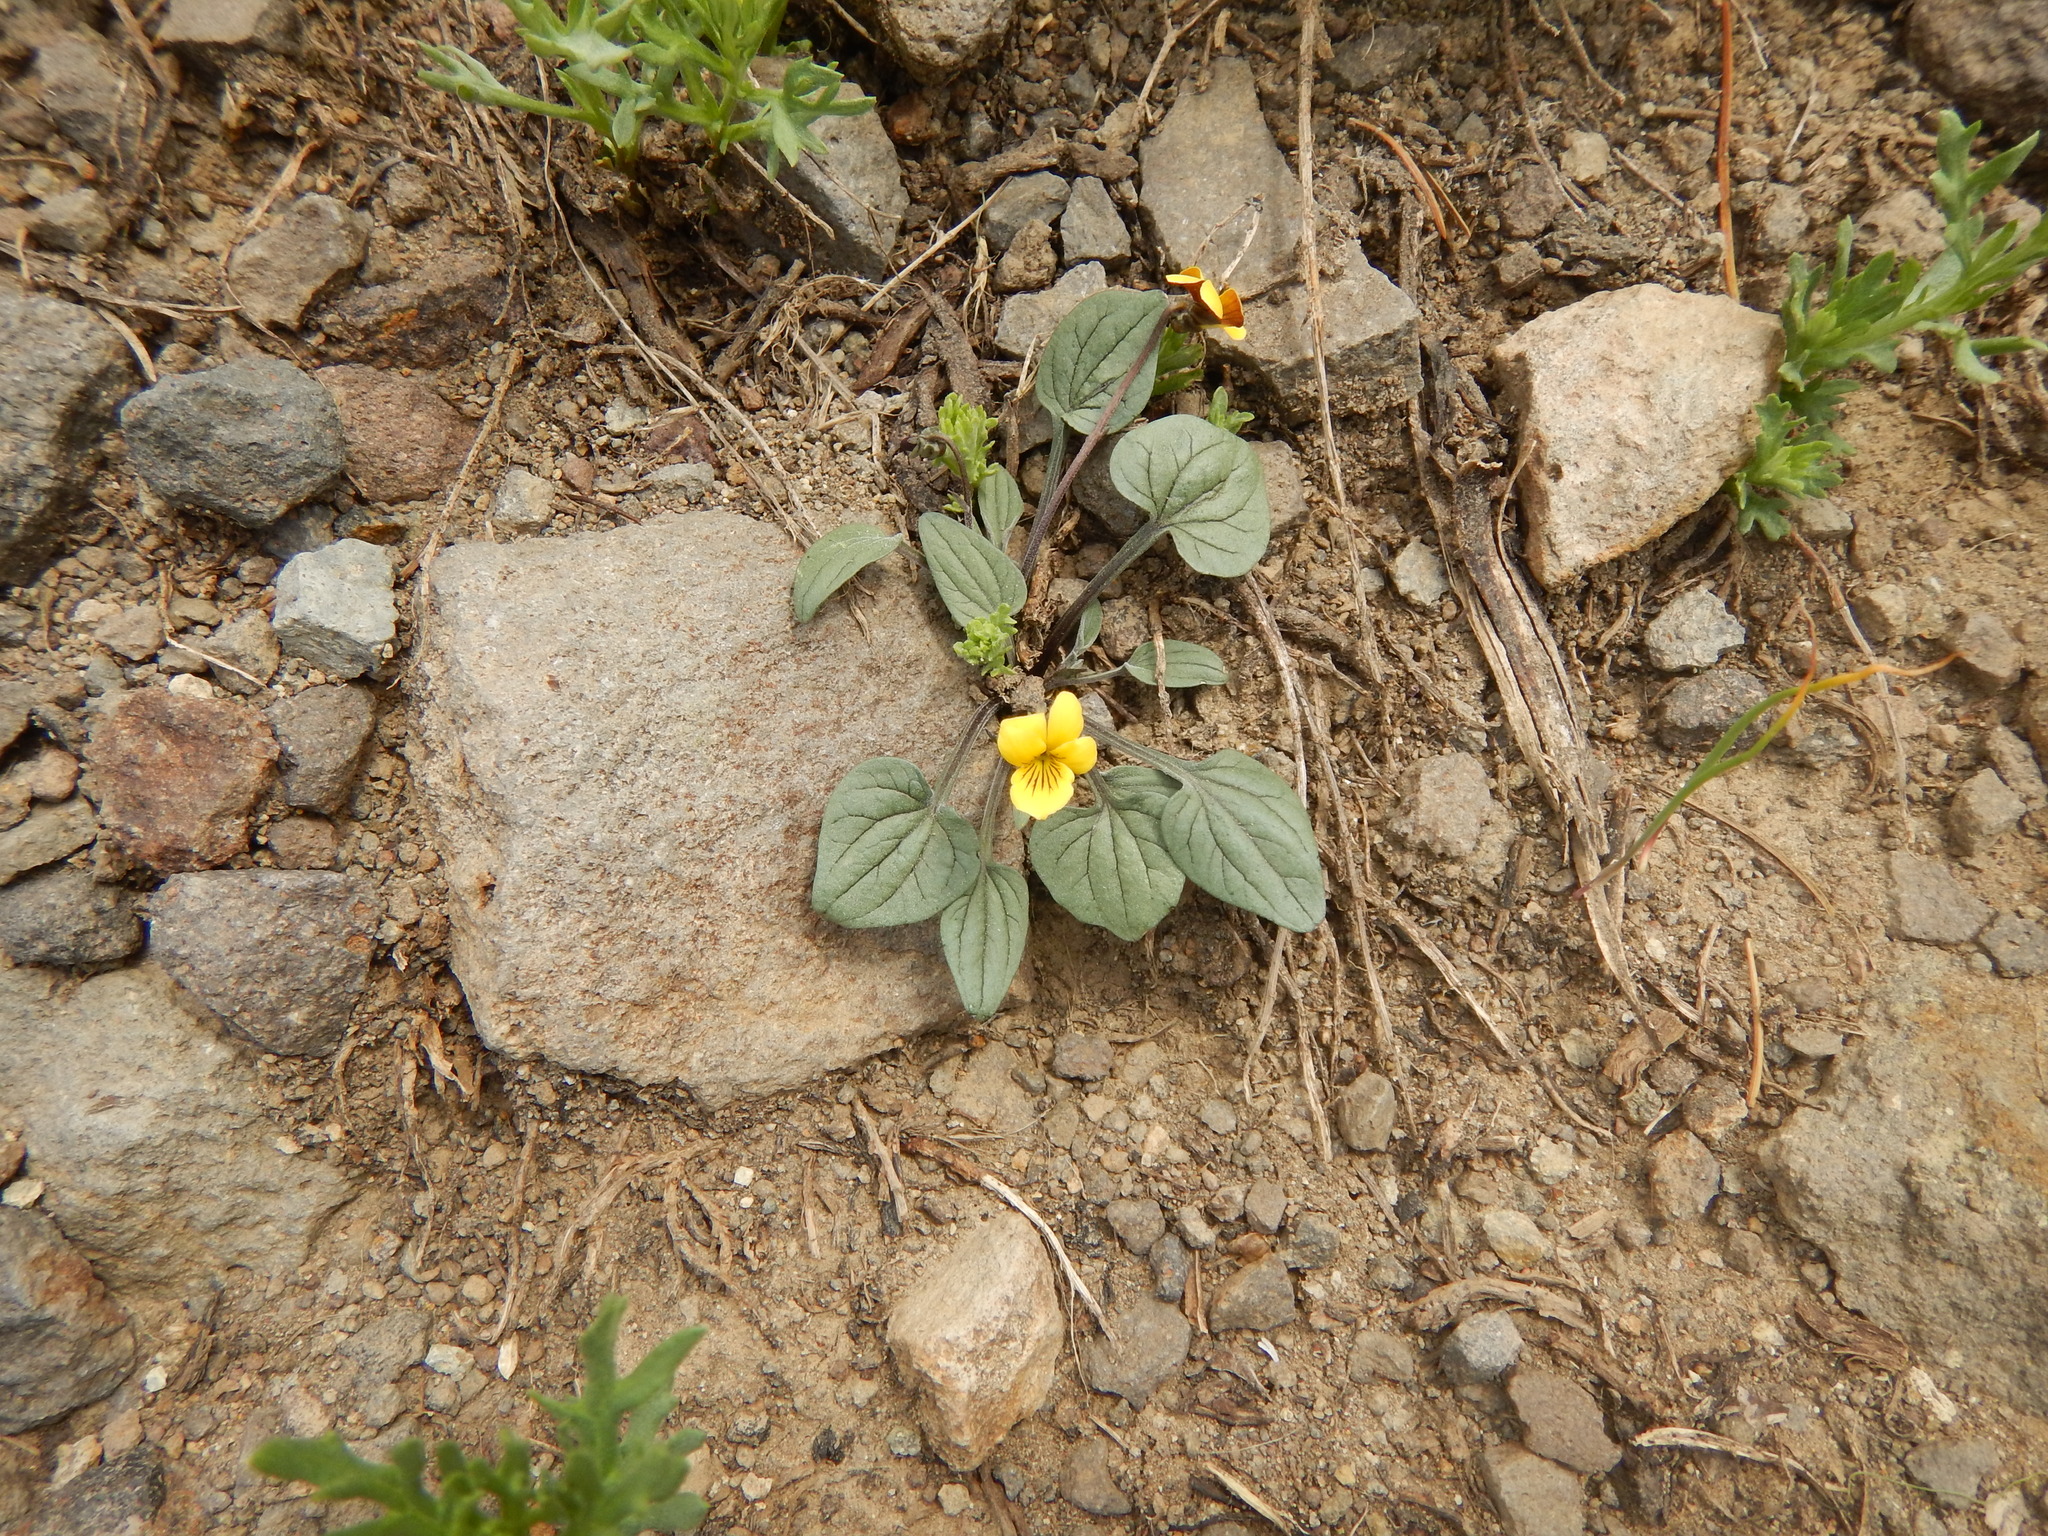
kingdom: Plantae
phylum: Tracheophyta
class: Magnoliopsida
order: Malpighiales
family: Violaceae
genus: Viola
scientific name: Viola purpurea
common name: Pine violet
